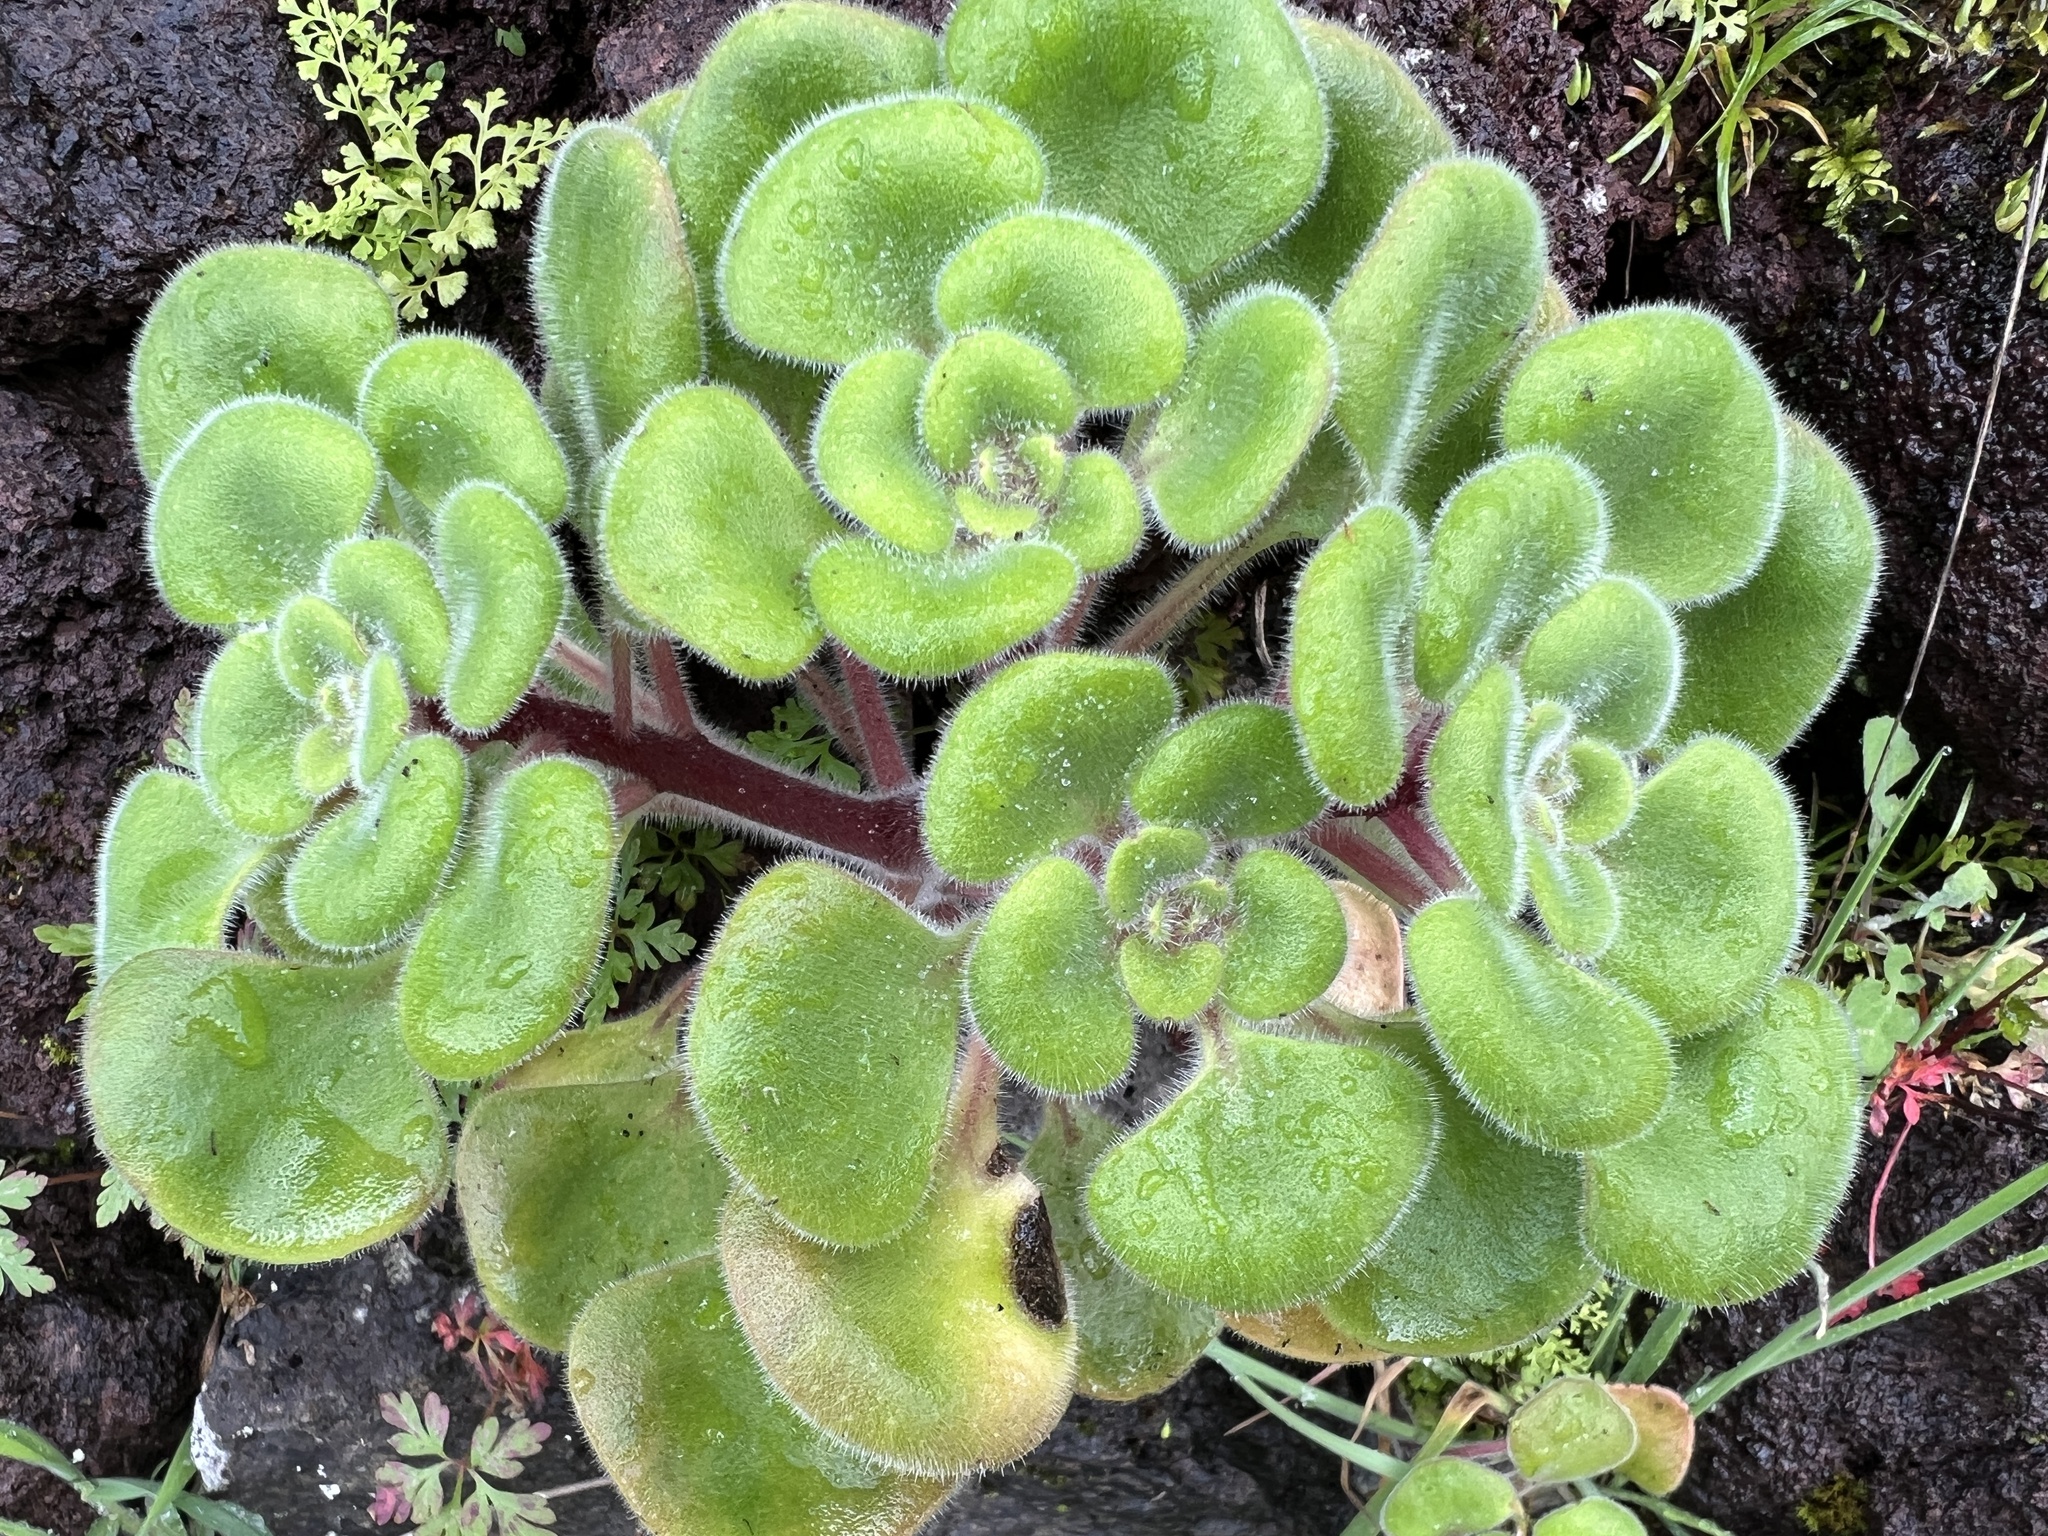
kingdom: Plantae
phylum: Tracheophyta
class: Magnoliopsida
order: Saxifragales
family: Crassulaceae
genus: Aichryson
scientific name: Aichryson laxum
